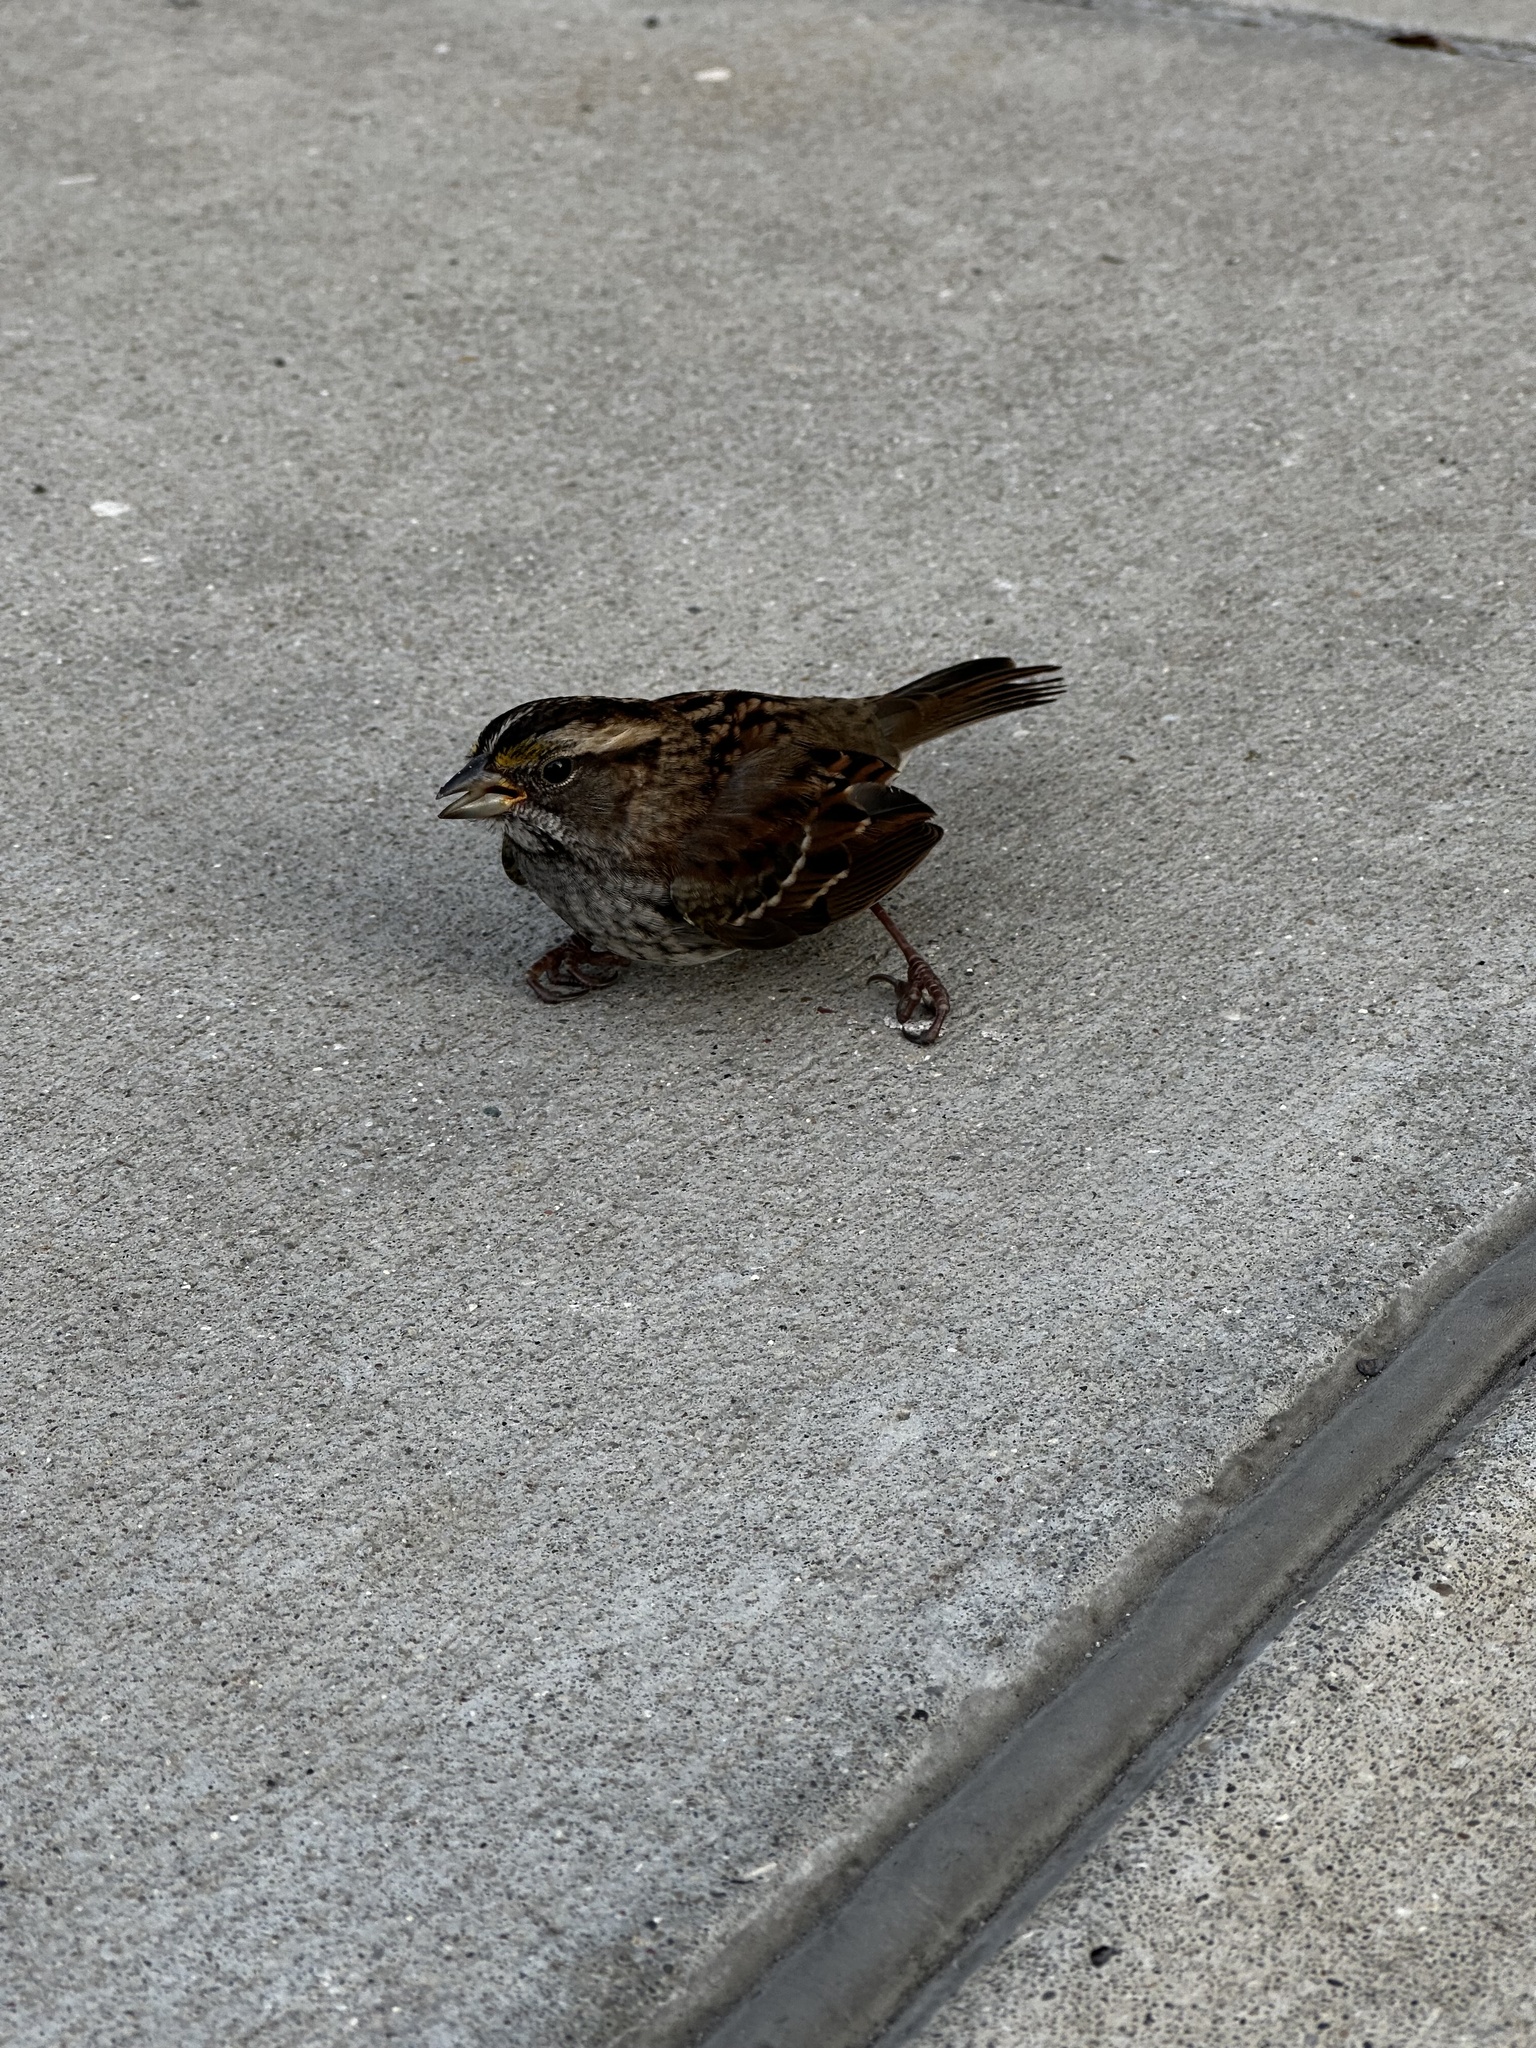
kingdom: Animalia
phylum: Chordata
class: Aves
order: Passeriformes
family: Passerellidae
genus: Zonotrichia
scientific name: Zonotrichia albicollis
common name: White-throated sparrow
